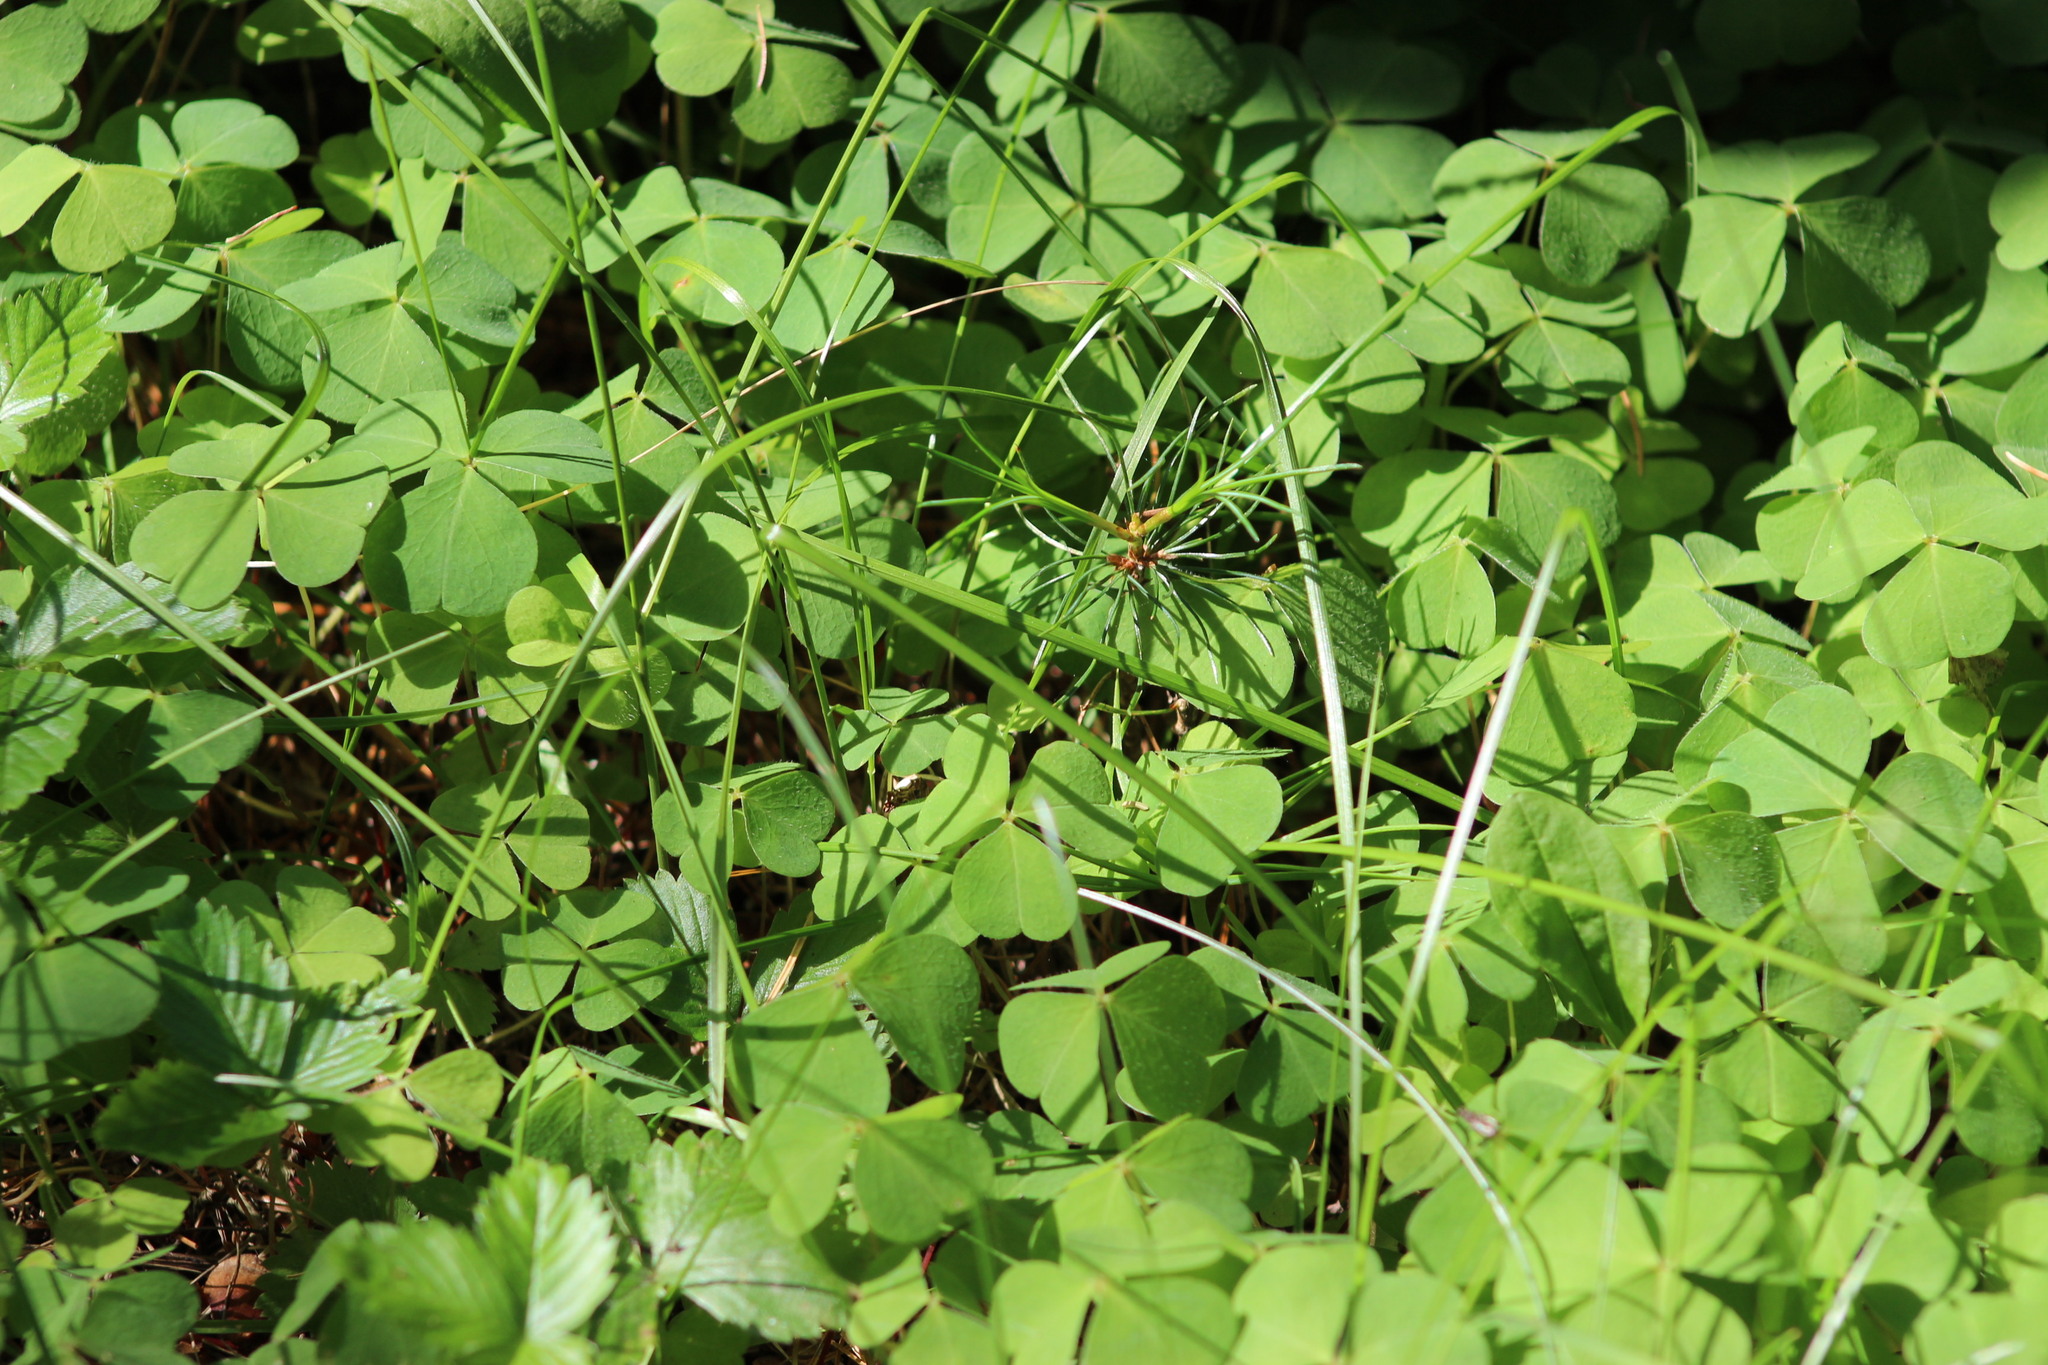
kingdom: Plantae
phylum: Tracheophyta
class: Magnoliopsida
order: Oxalidales
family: Oxalidaceae
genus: Oxalis
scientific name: Oxalis acetosella
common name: Wood-sorrel
